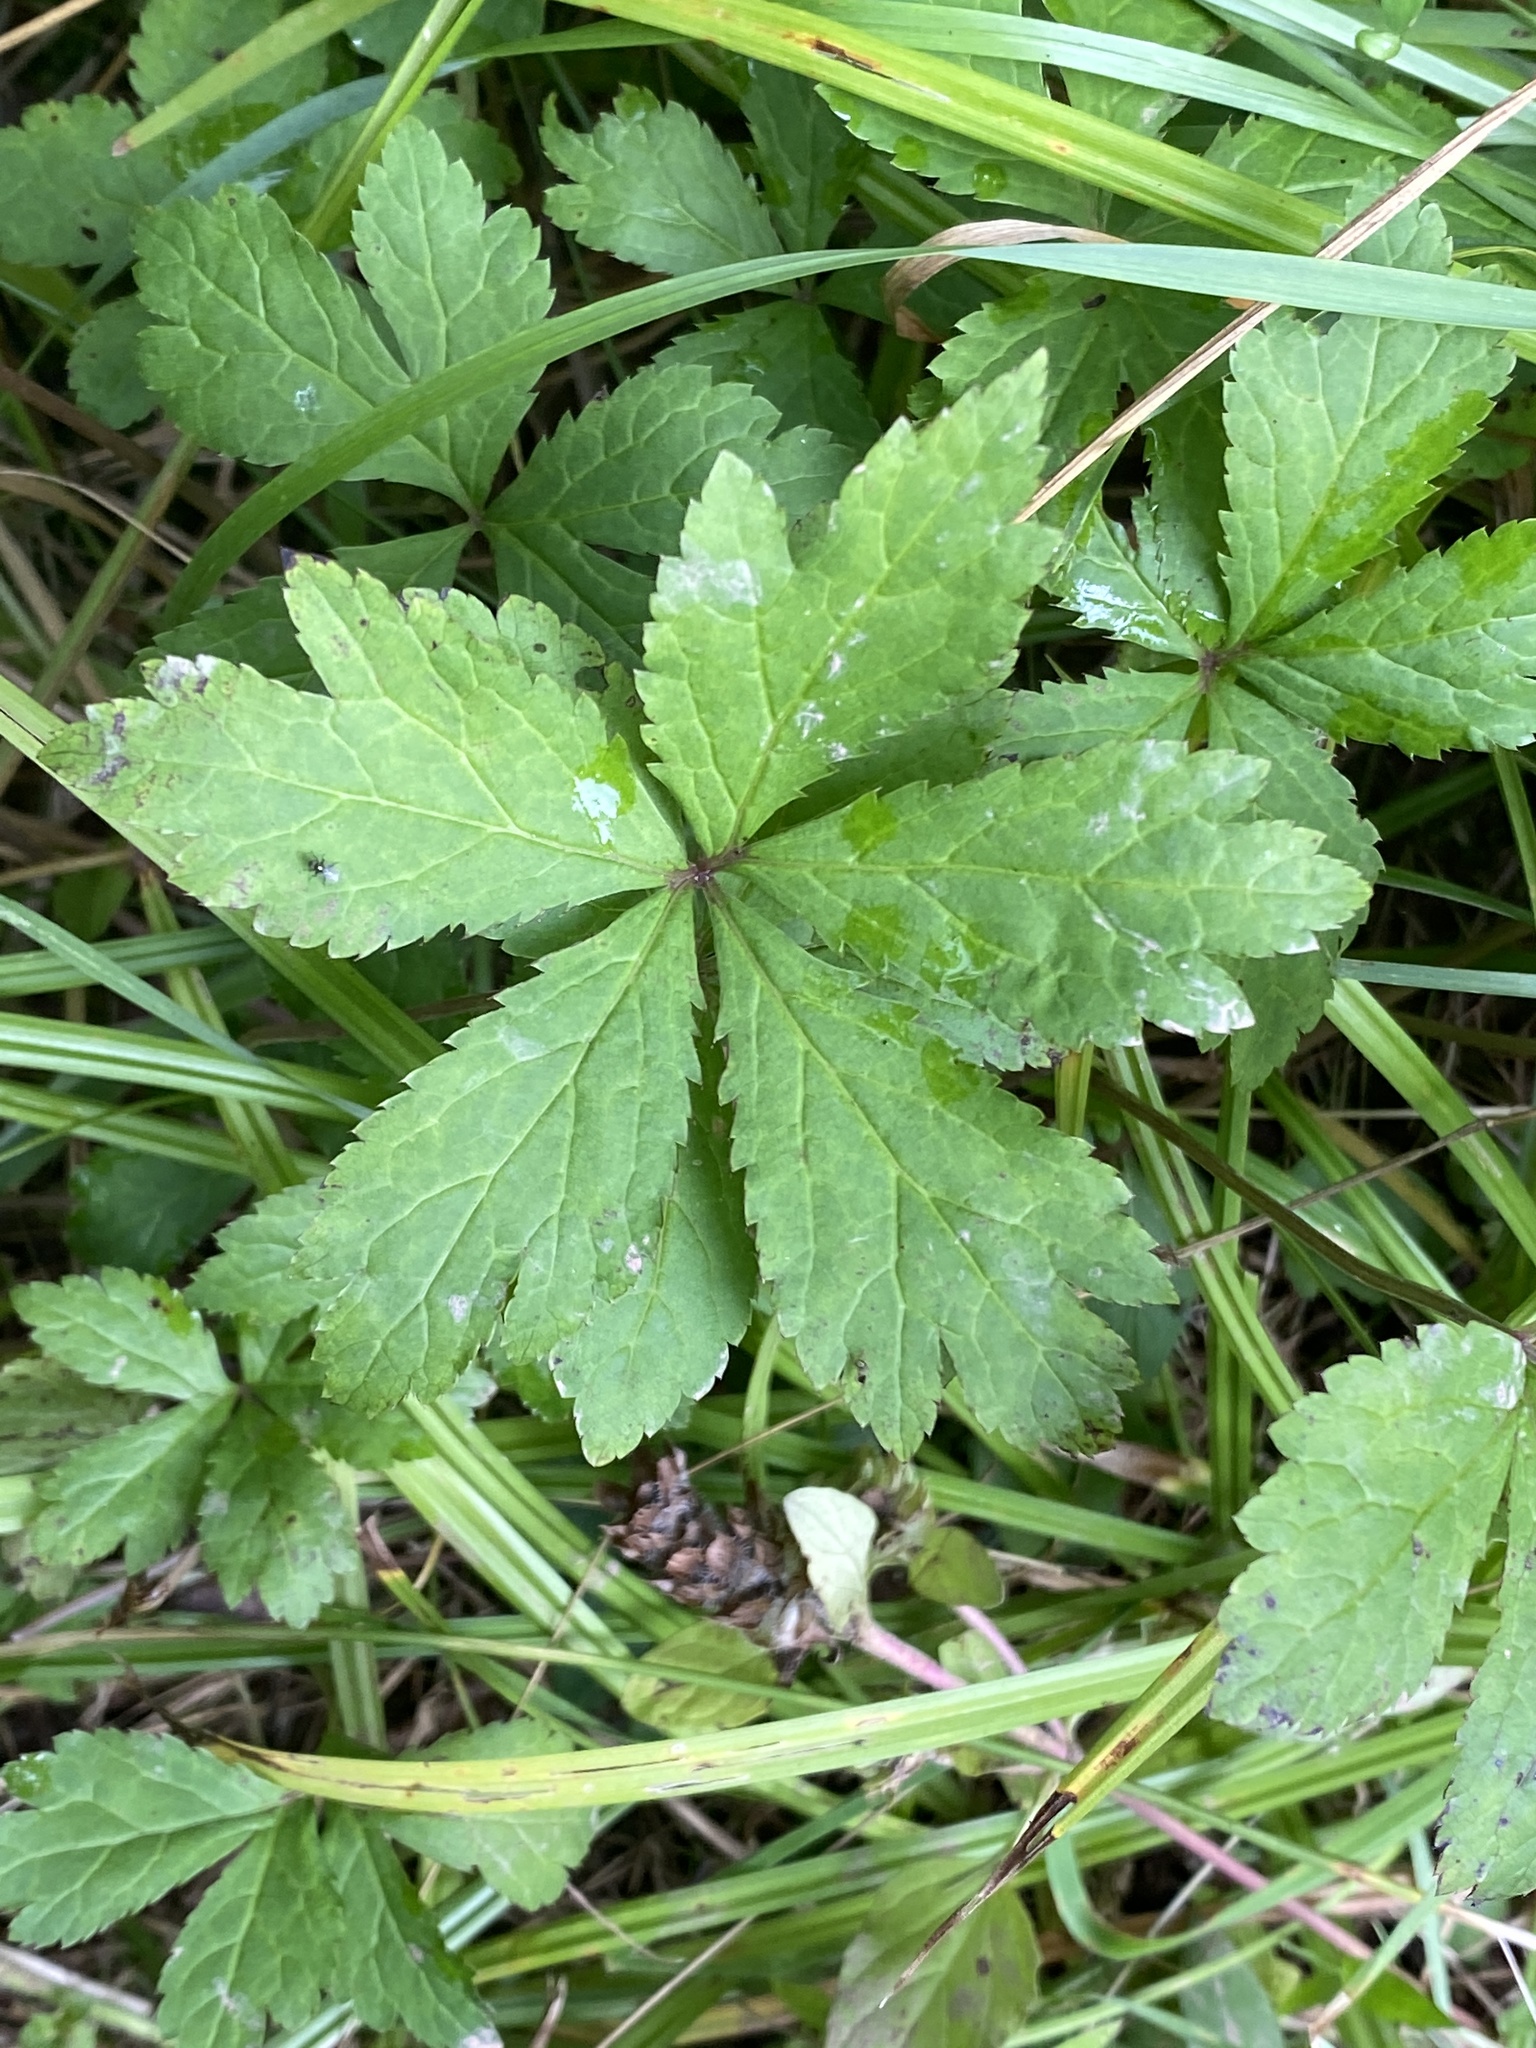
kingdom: Plantae
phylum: Tracheophyta
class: Magnoliopsida
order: Apiales
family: Apiaceae
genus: Sanicula
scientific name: Sanicula canadensis
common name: Canada sanicle
